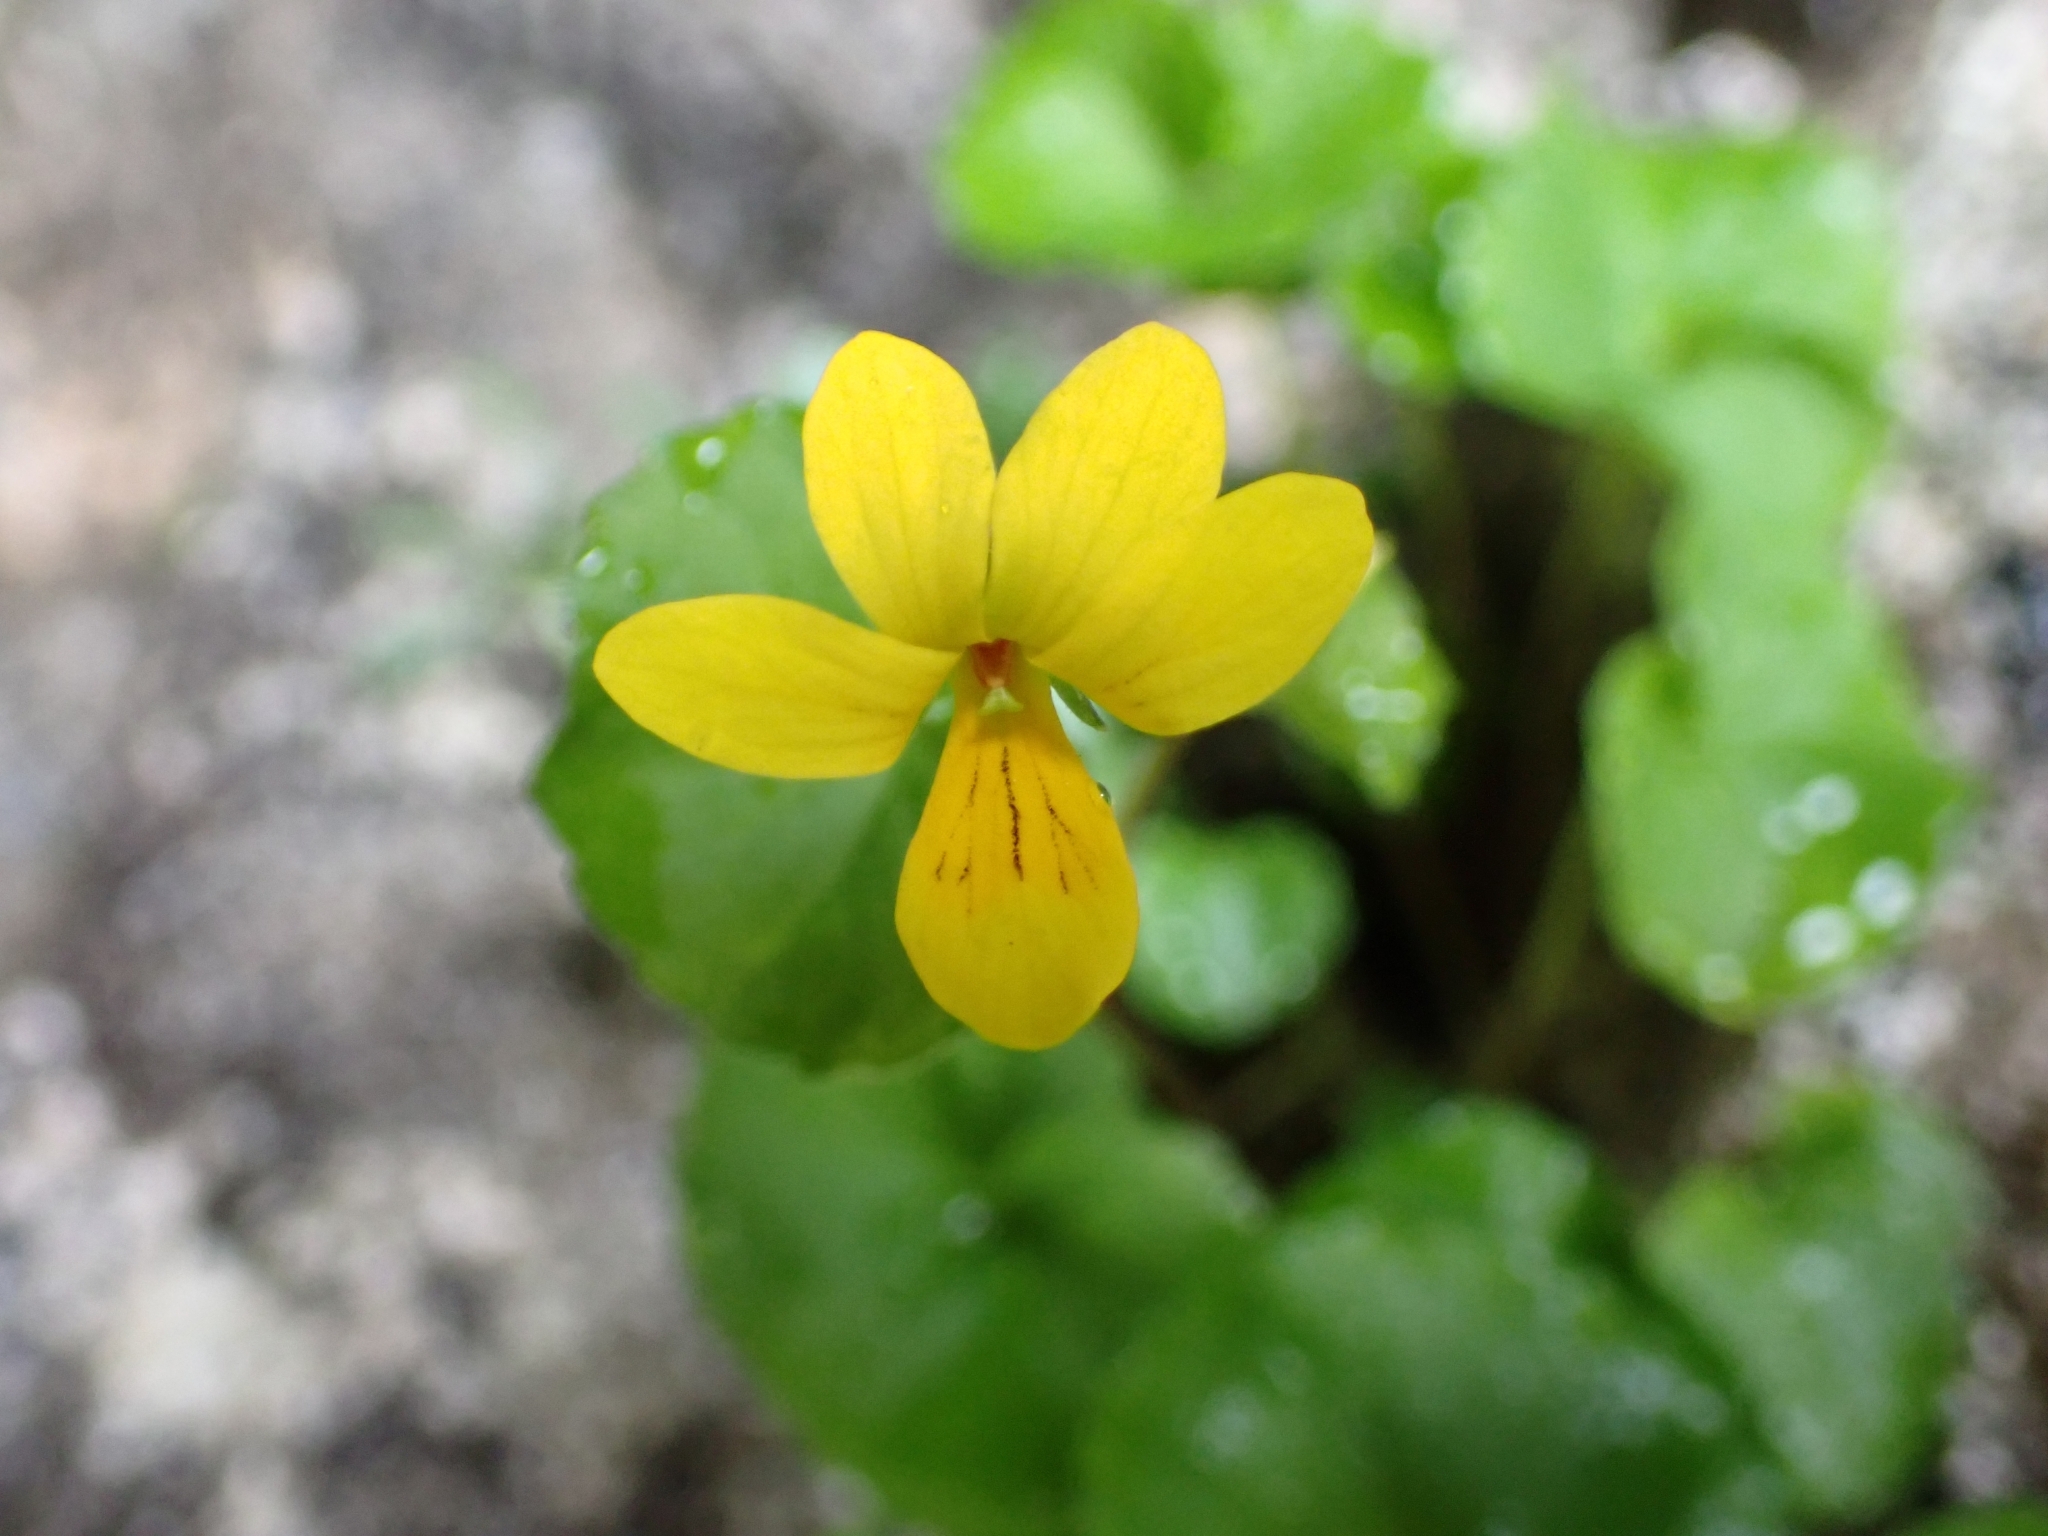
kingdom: Plantae
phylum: Tracheophyta
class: Magnoliopsida
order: Malpighiales
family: Violaceae
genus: Viola
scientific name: Viola biflora
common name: Alpine yellow violet
